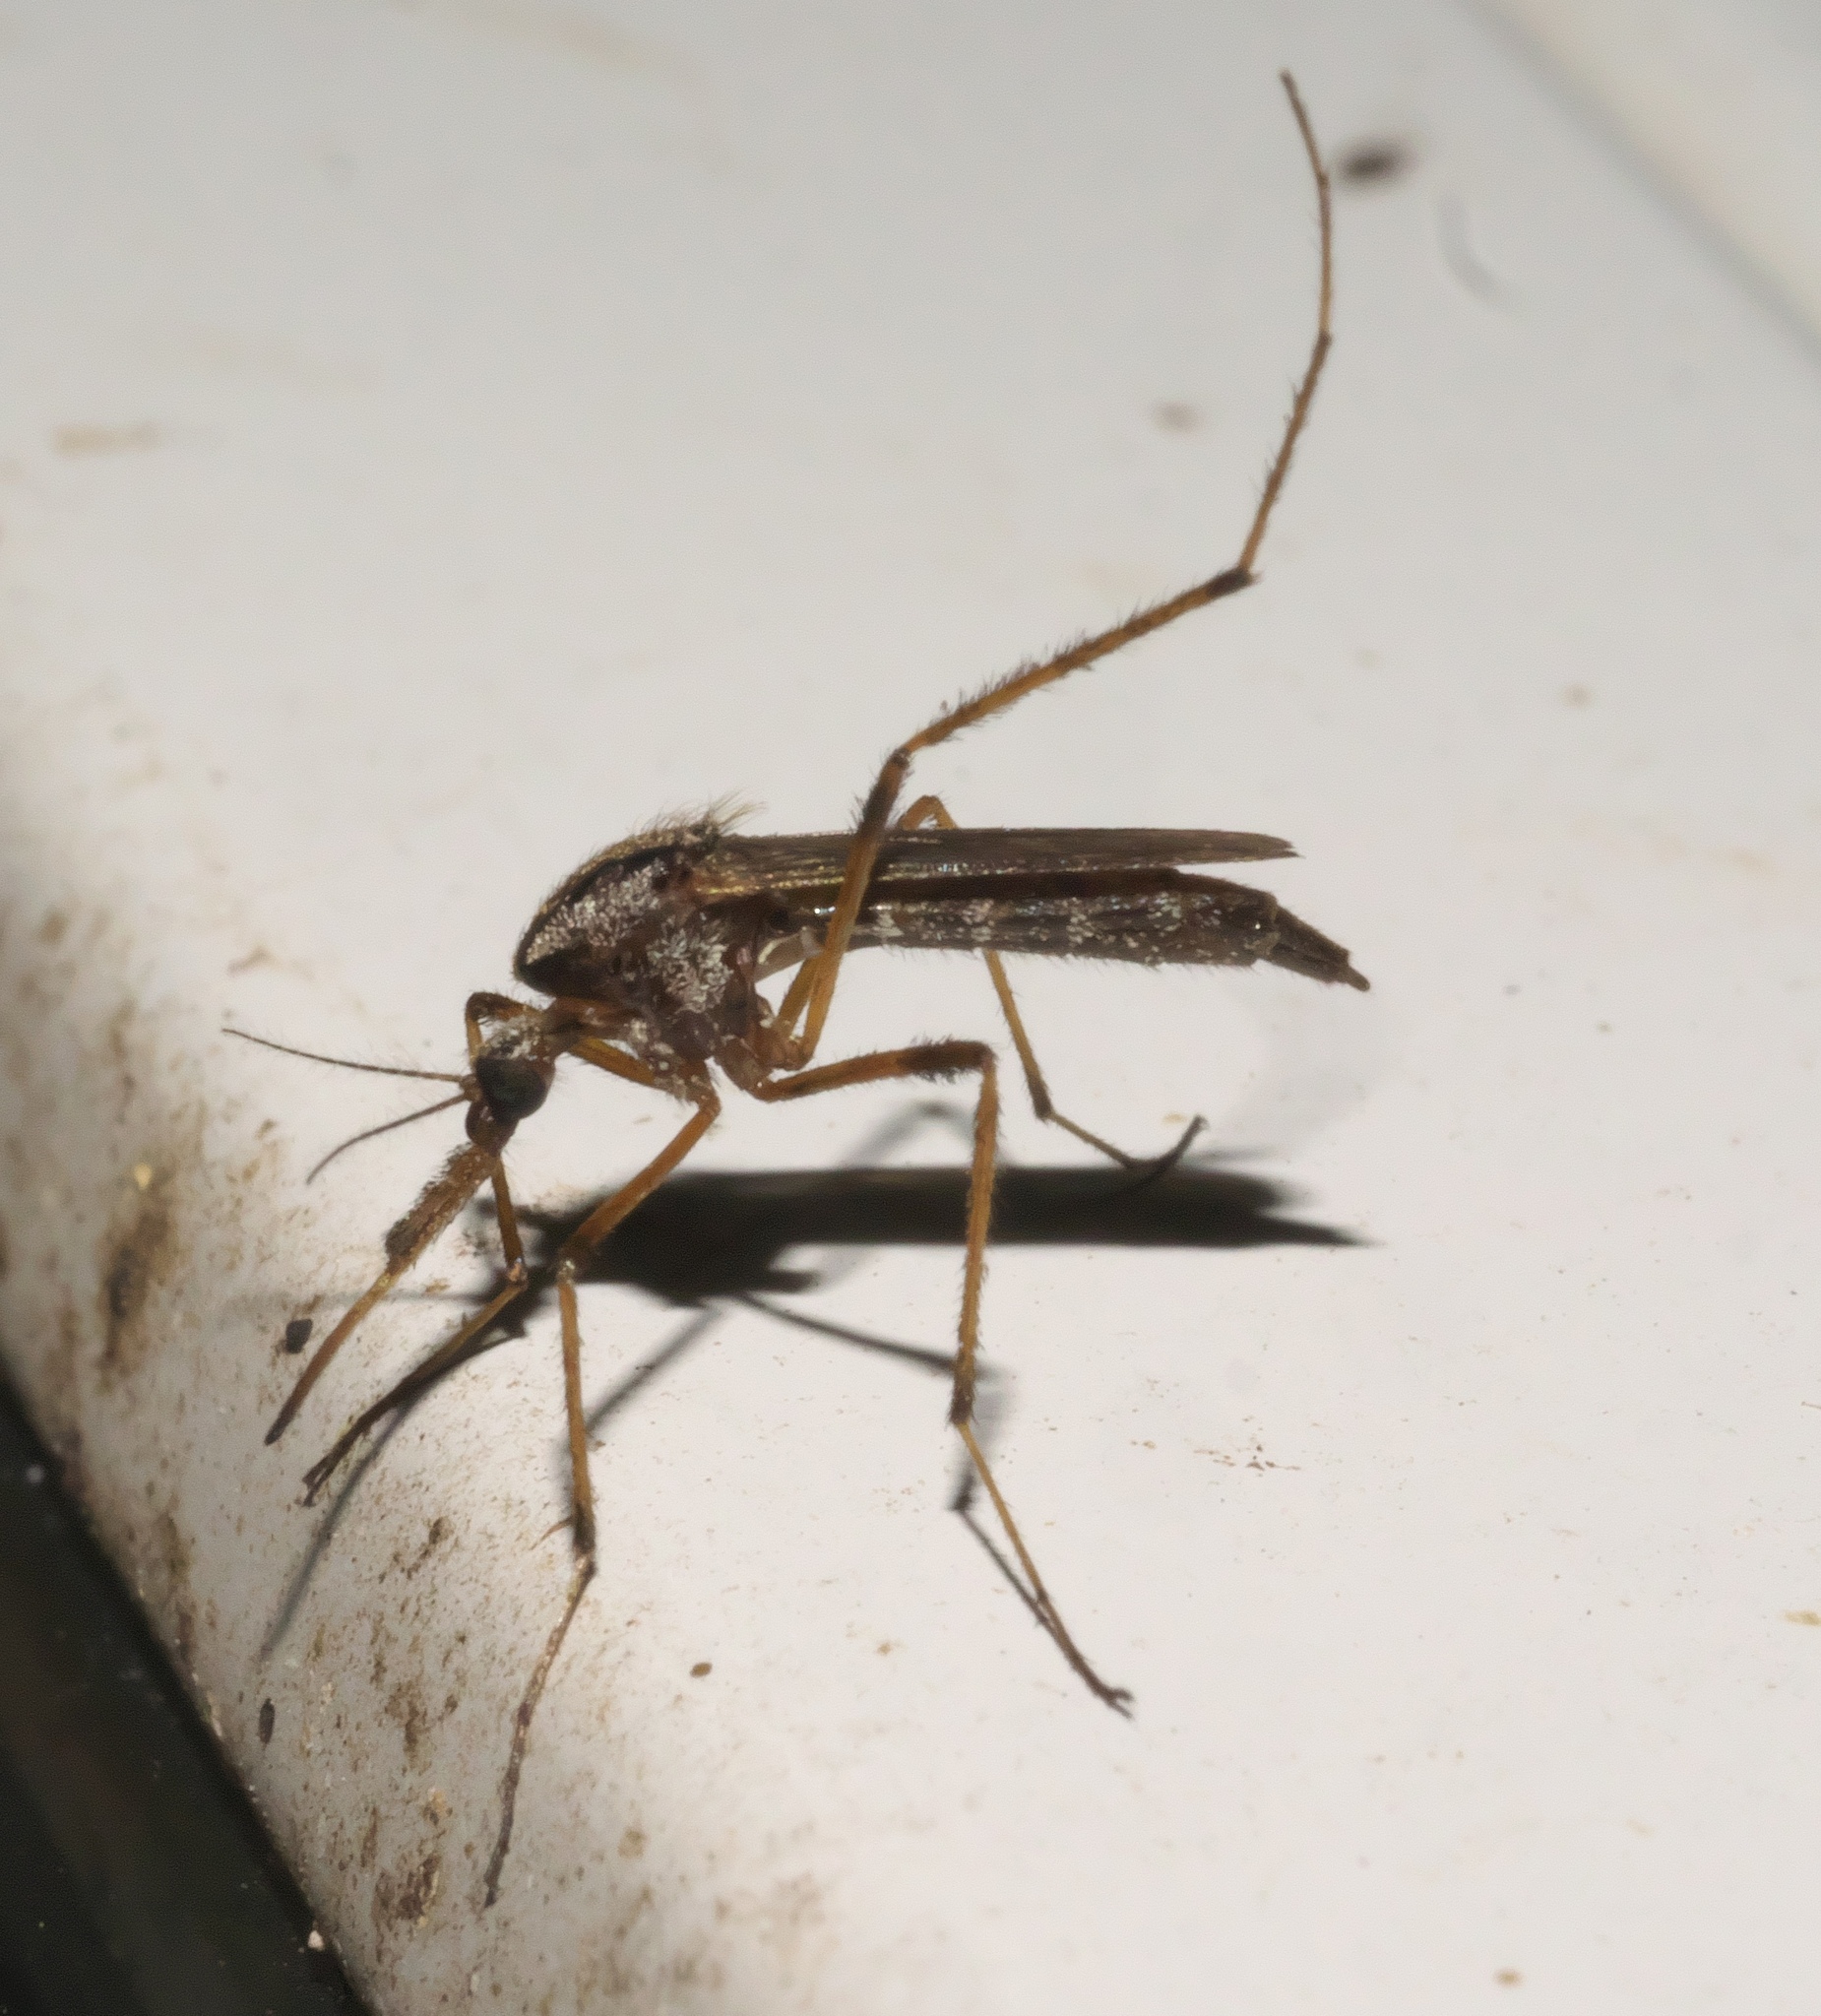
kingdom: Animalia
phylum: Arthropoda
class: Insecta
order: Diptera
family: Culicidae
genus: Psorophora
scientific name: Psorophora ciliata
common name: Gallinipper
